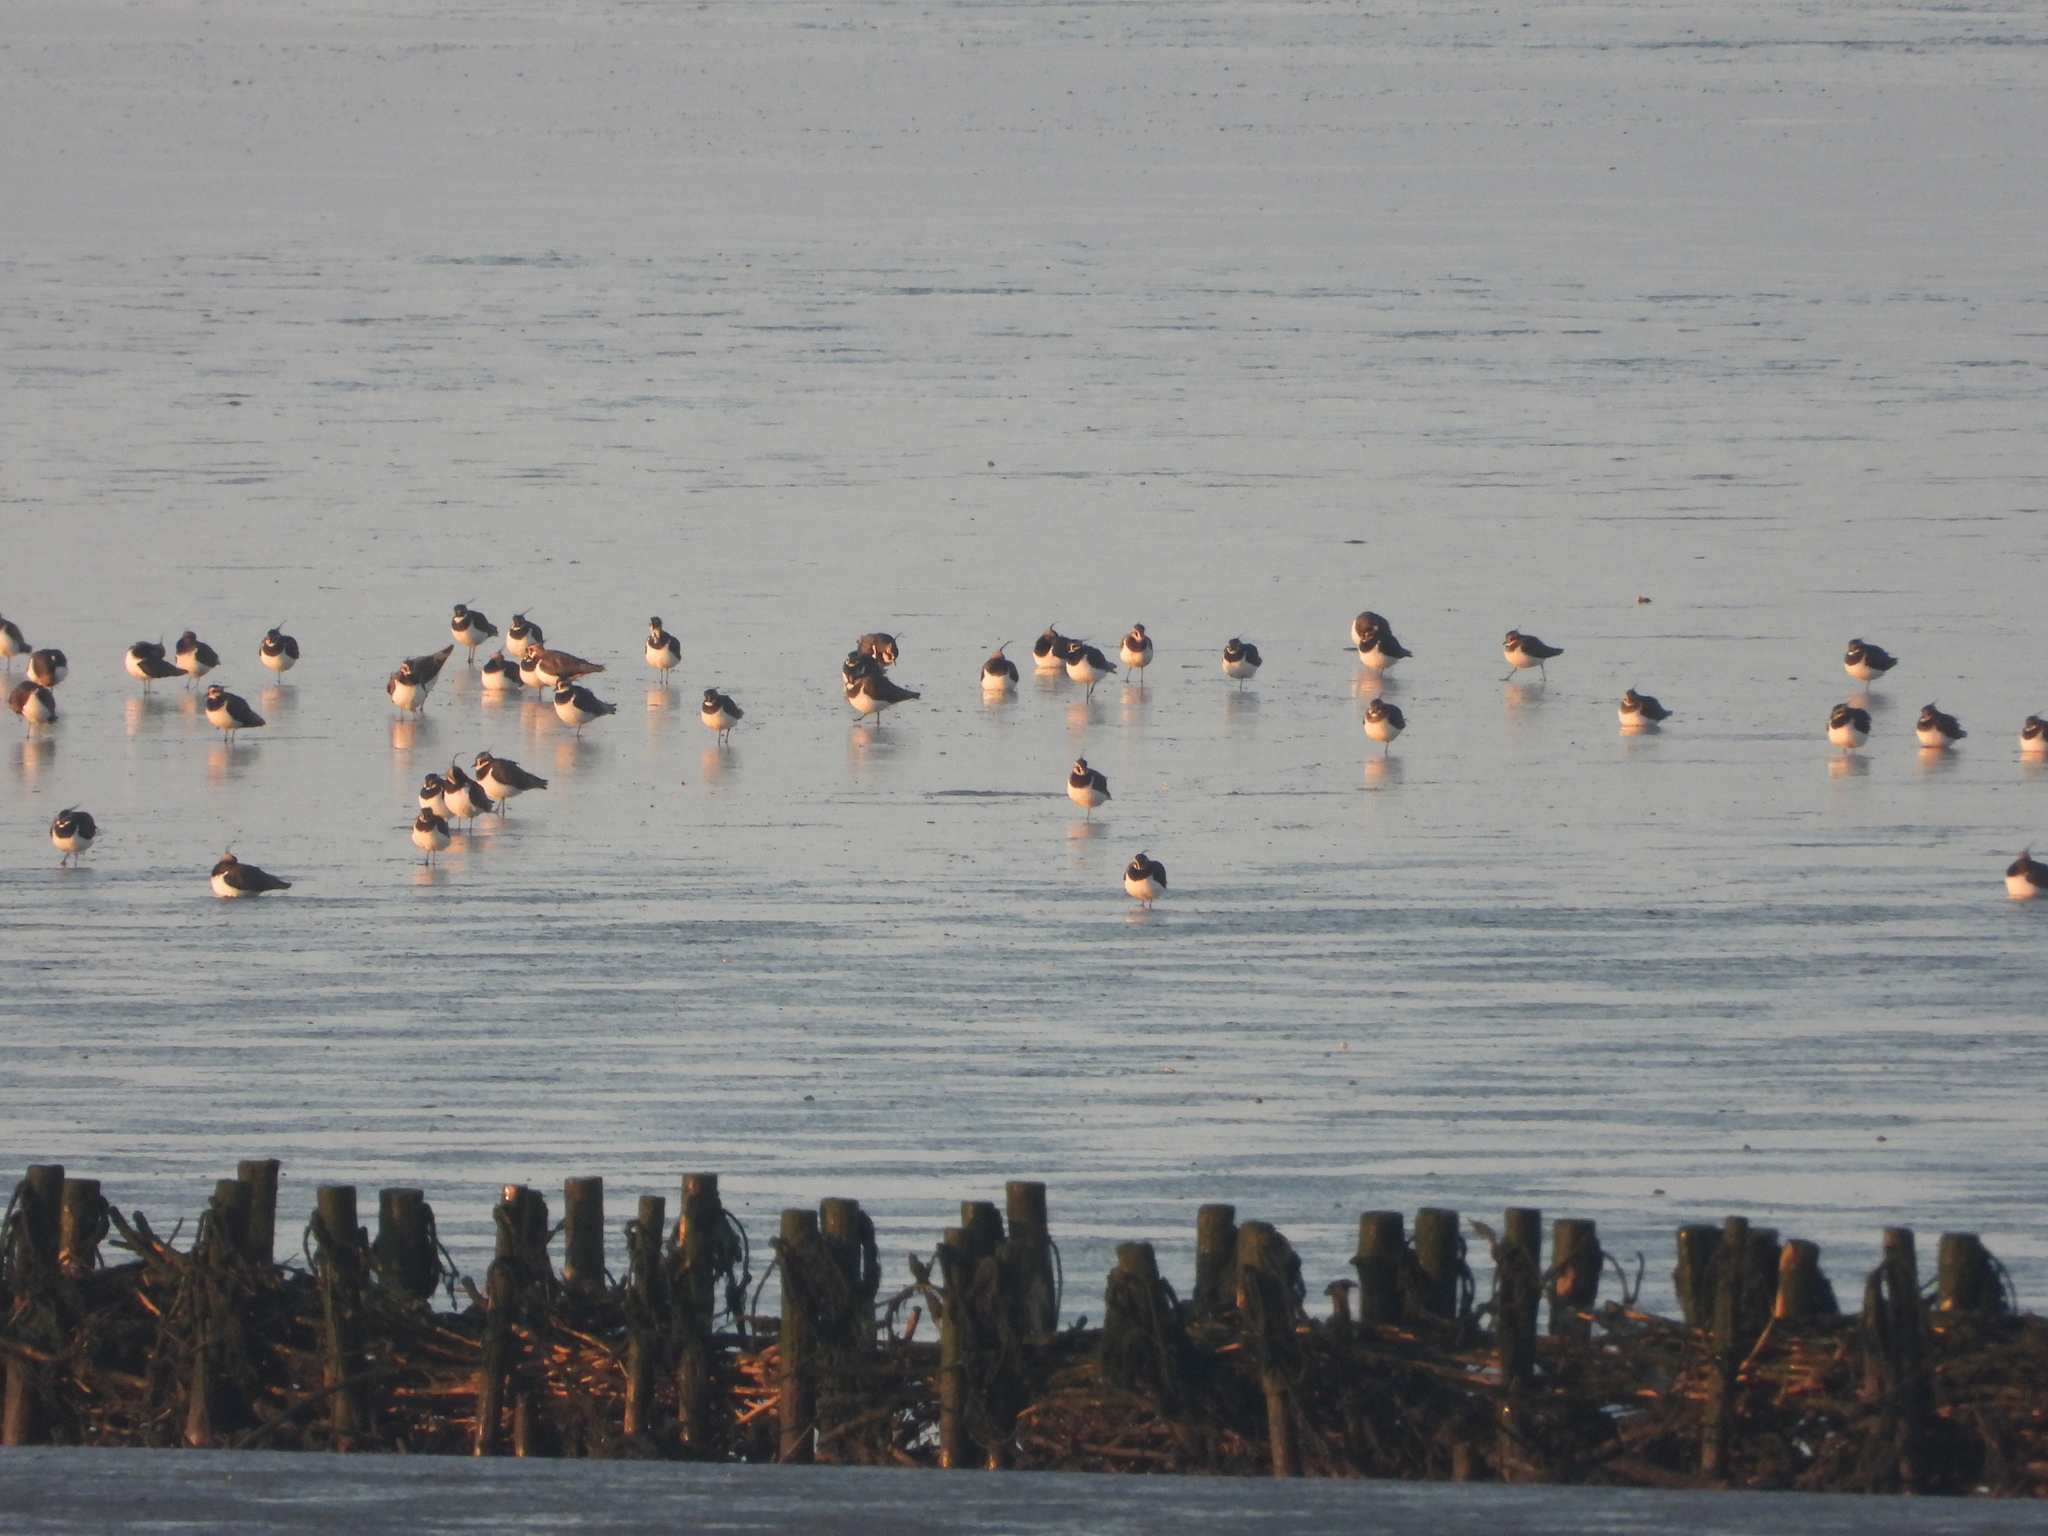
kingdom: Animalia
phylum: Chordata
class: Aves
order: Charadriiformes
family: Charadriidae
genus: Vanellus
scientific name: Vanellus vanellus
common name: Northern lapwing
